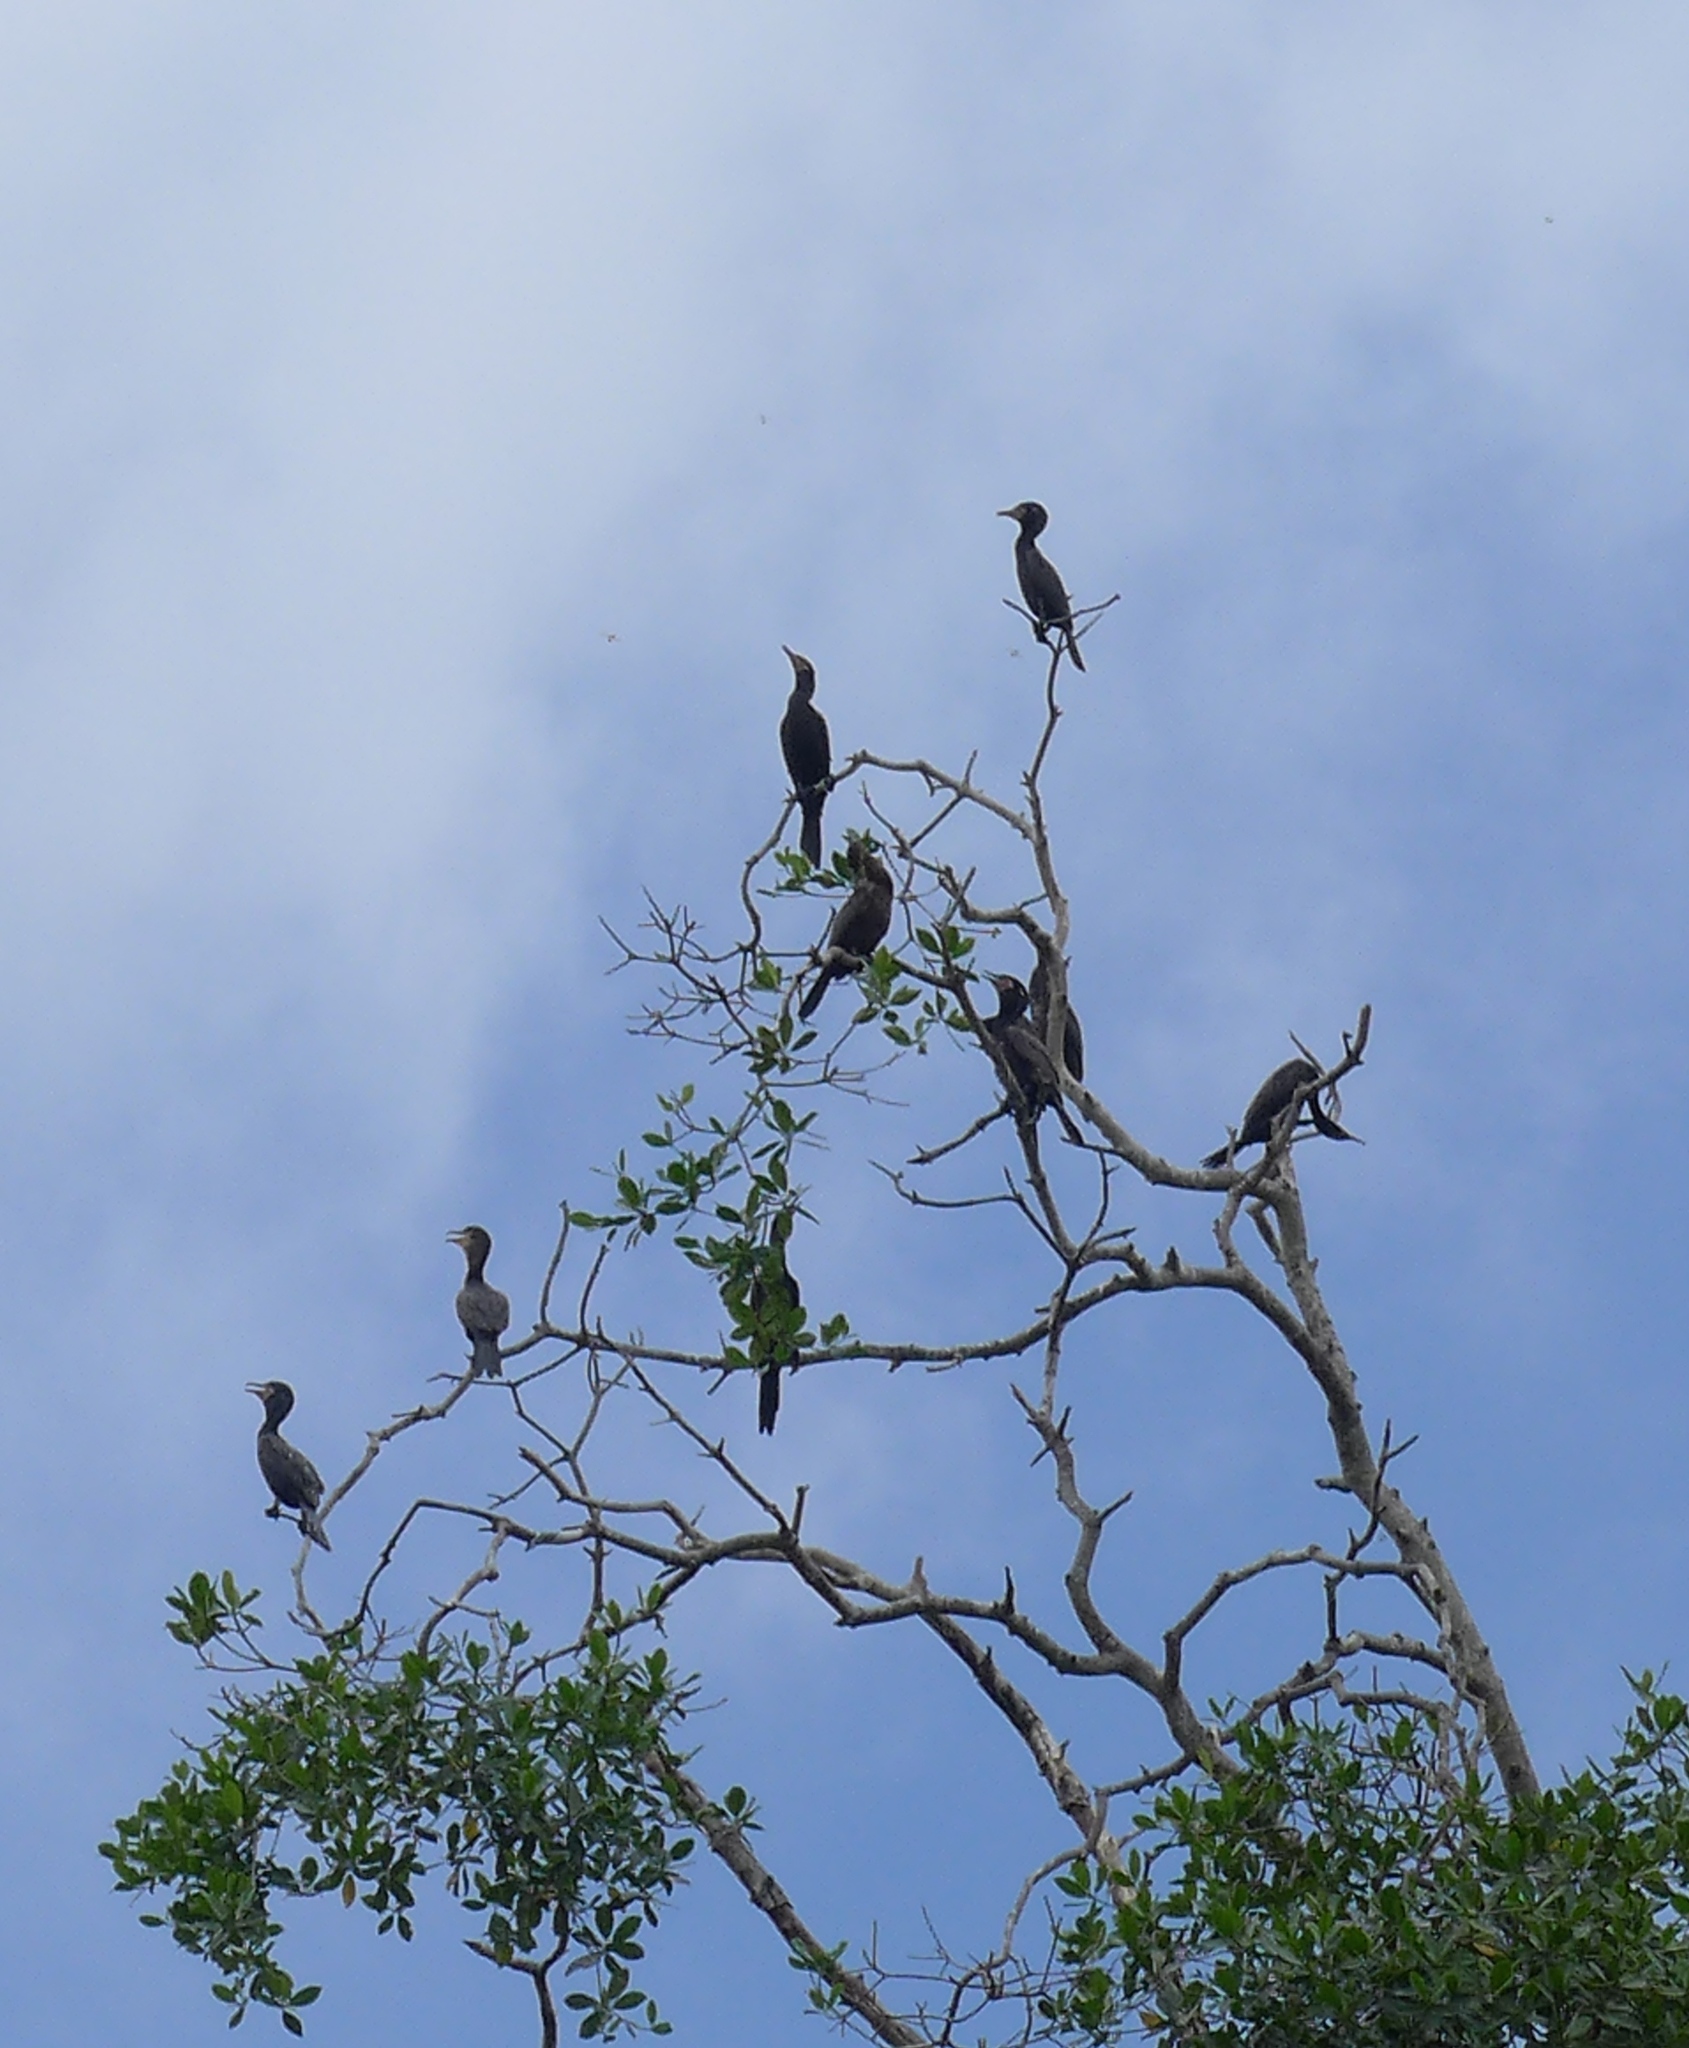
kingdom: Animalia
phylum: Chordata
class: Aves
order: Suliformes
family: Phalacrocoracidae
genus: Phalacrocorax
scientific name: Phalacrocorax brasilianus
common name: Neotropic cormorant
